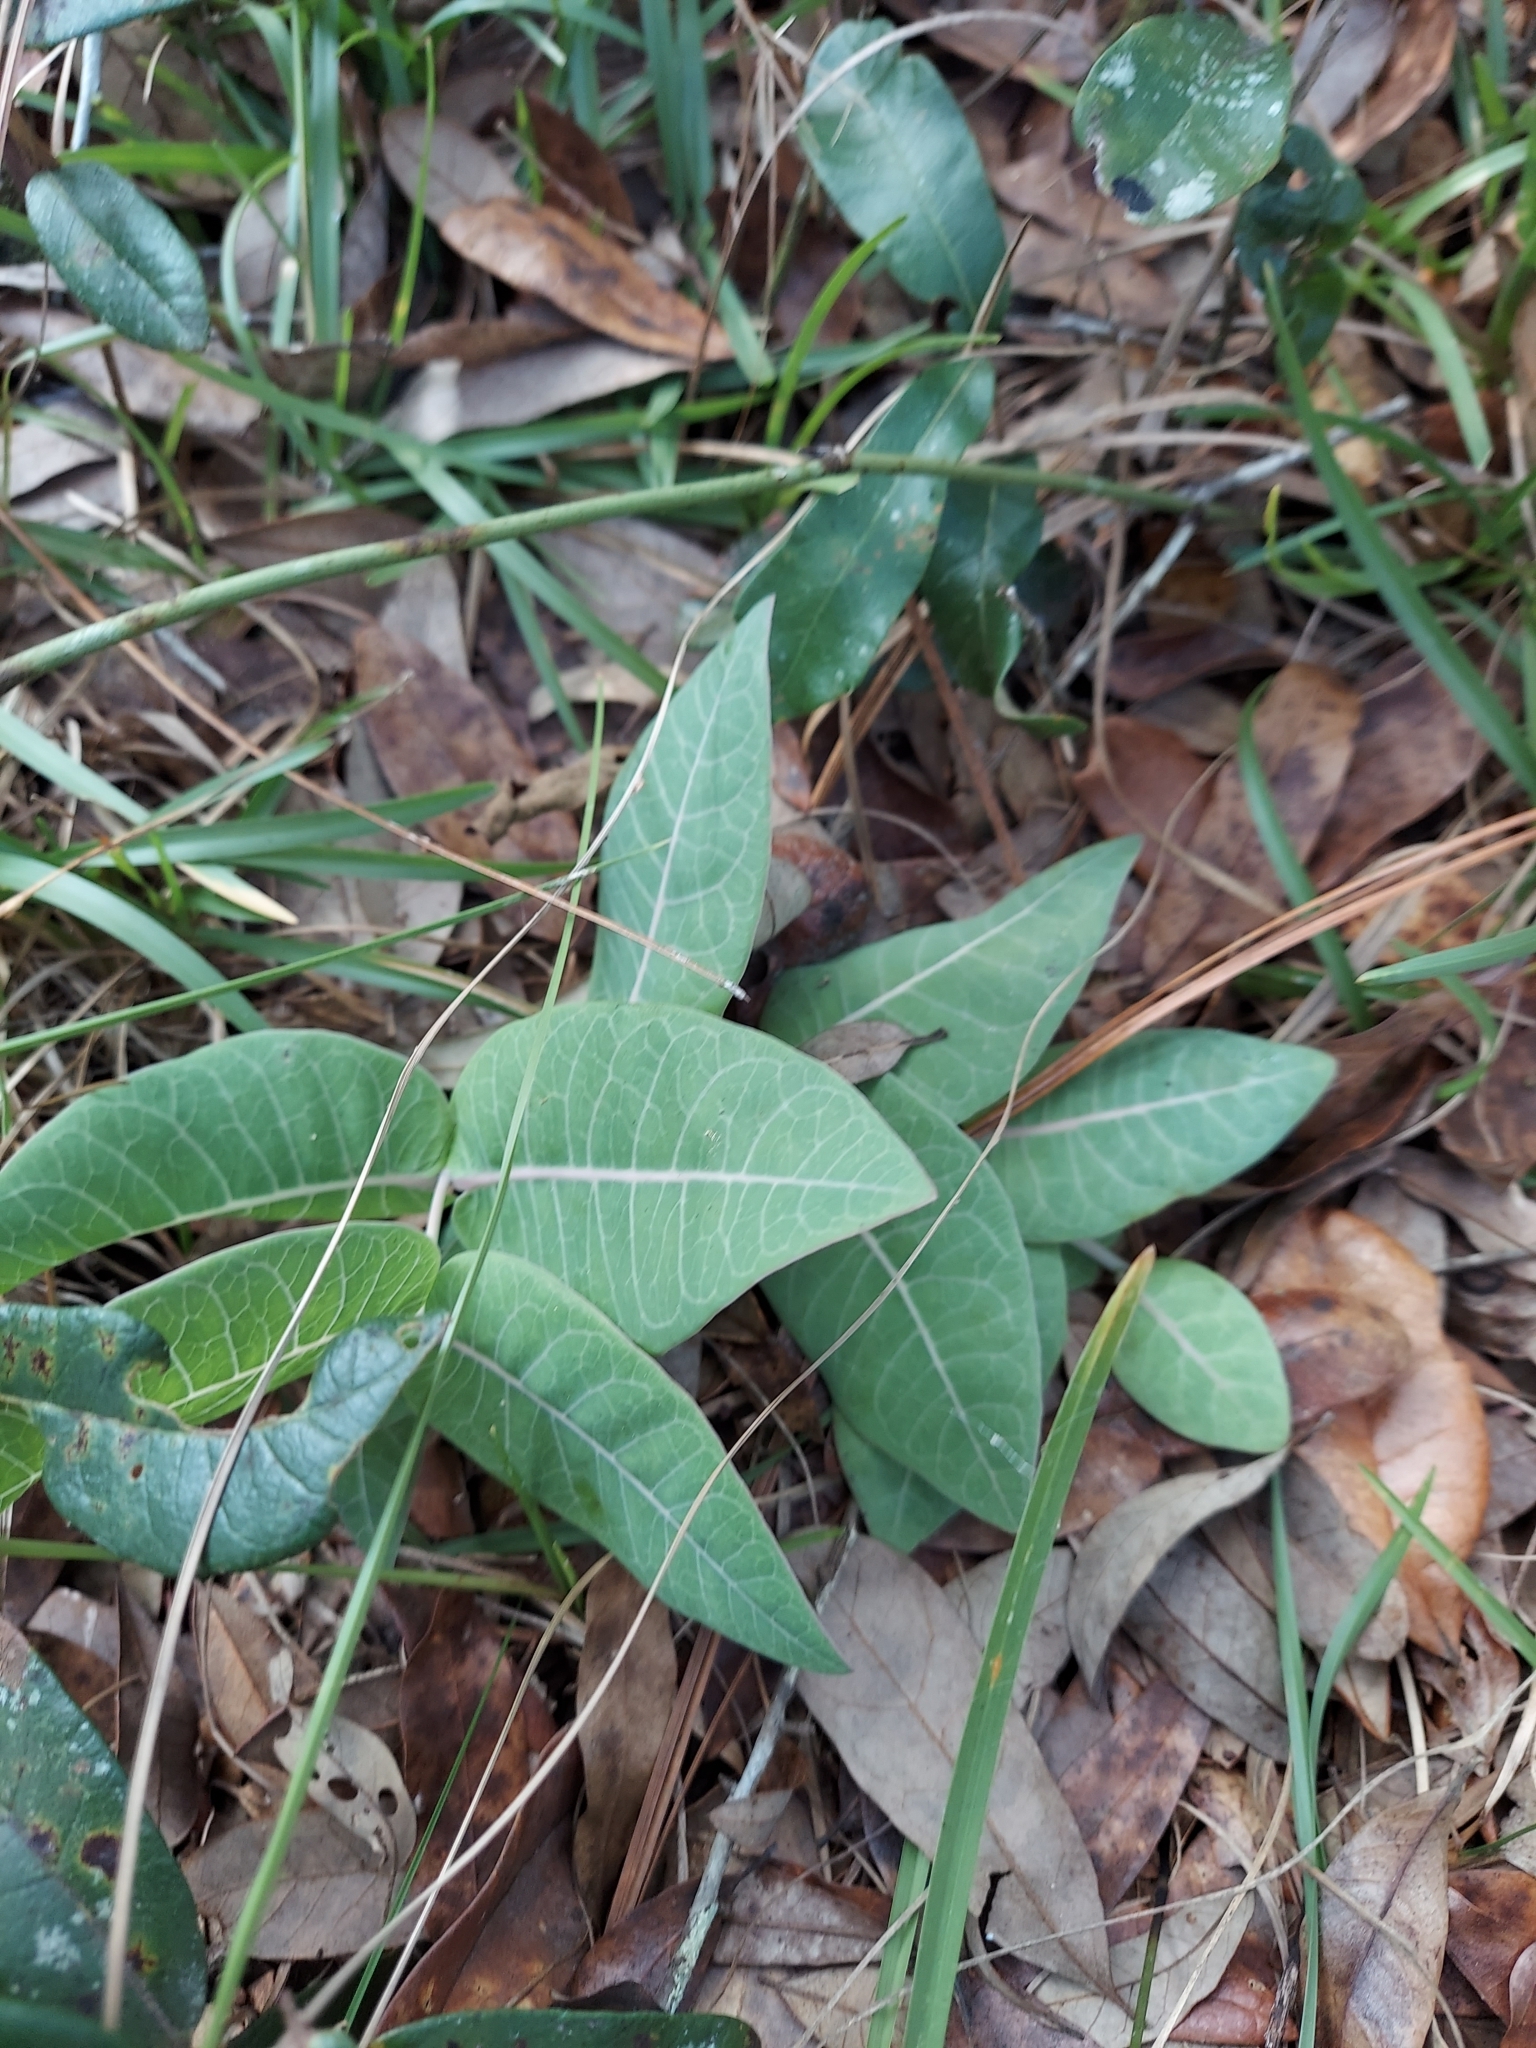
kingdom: Plantae
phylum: Tracheophyta
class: Magnoliopsida
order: Gentianales
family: Apocynaceae
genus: Asclepias
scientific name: Asclepias humistrata
